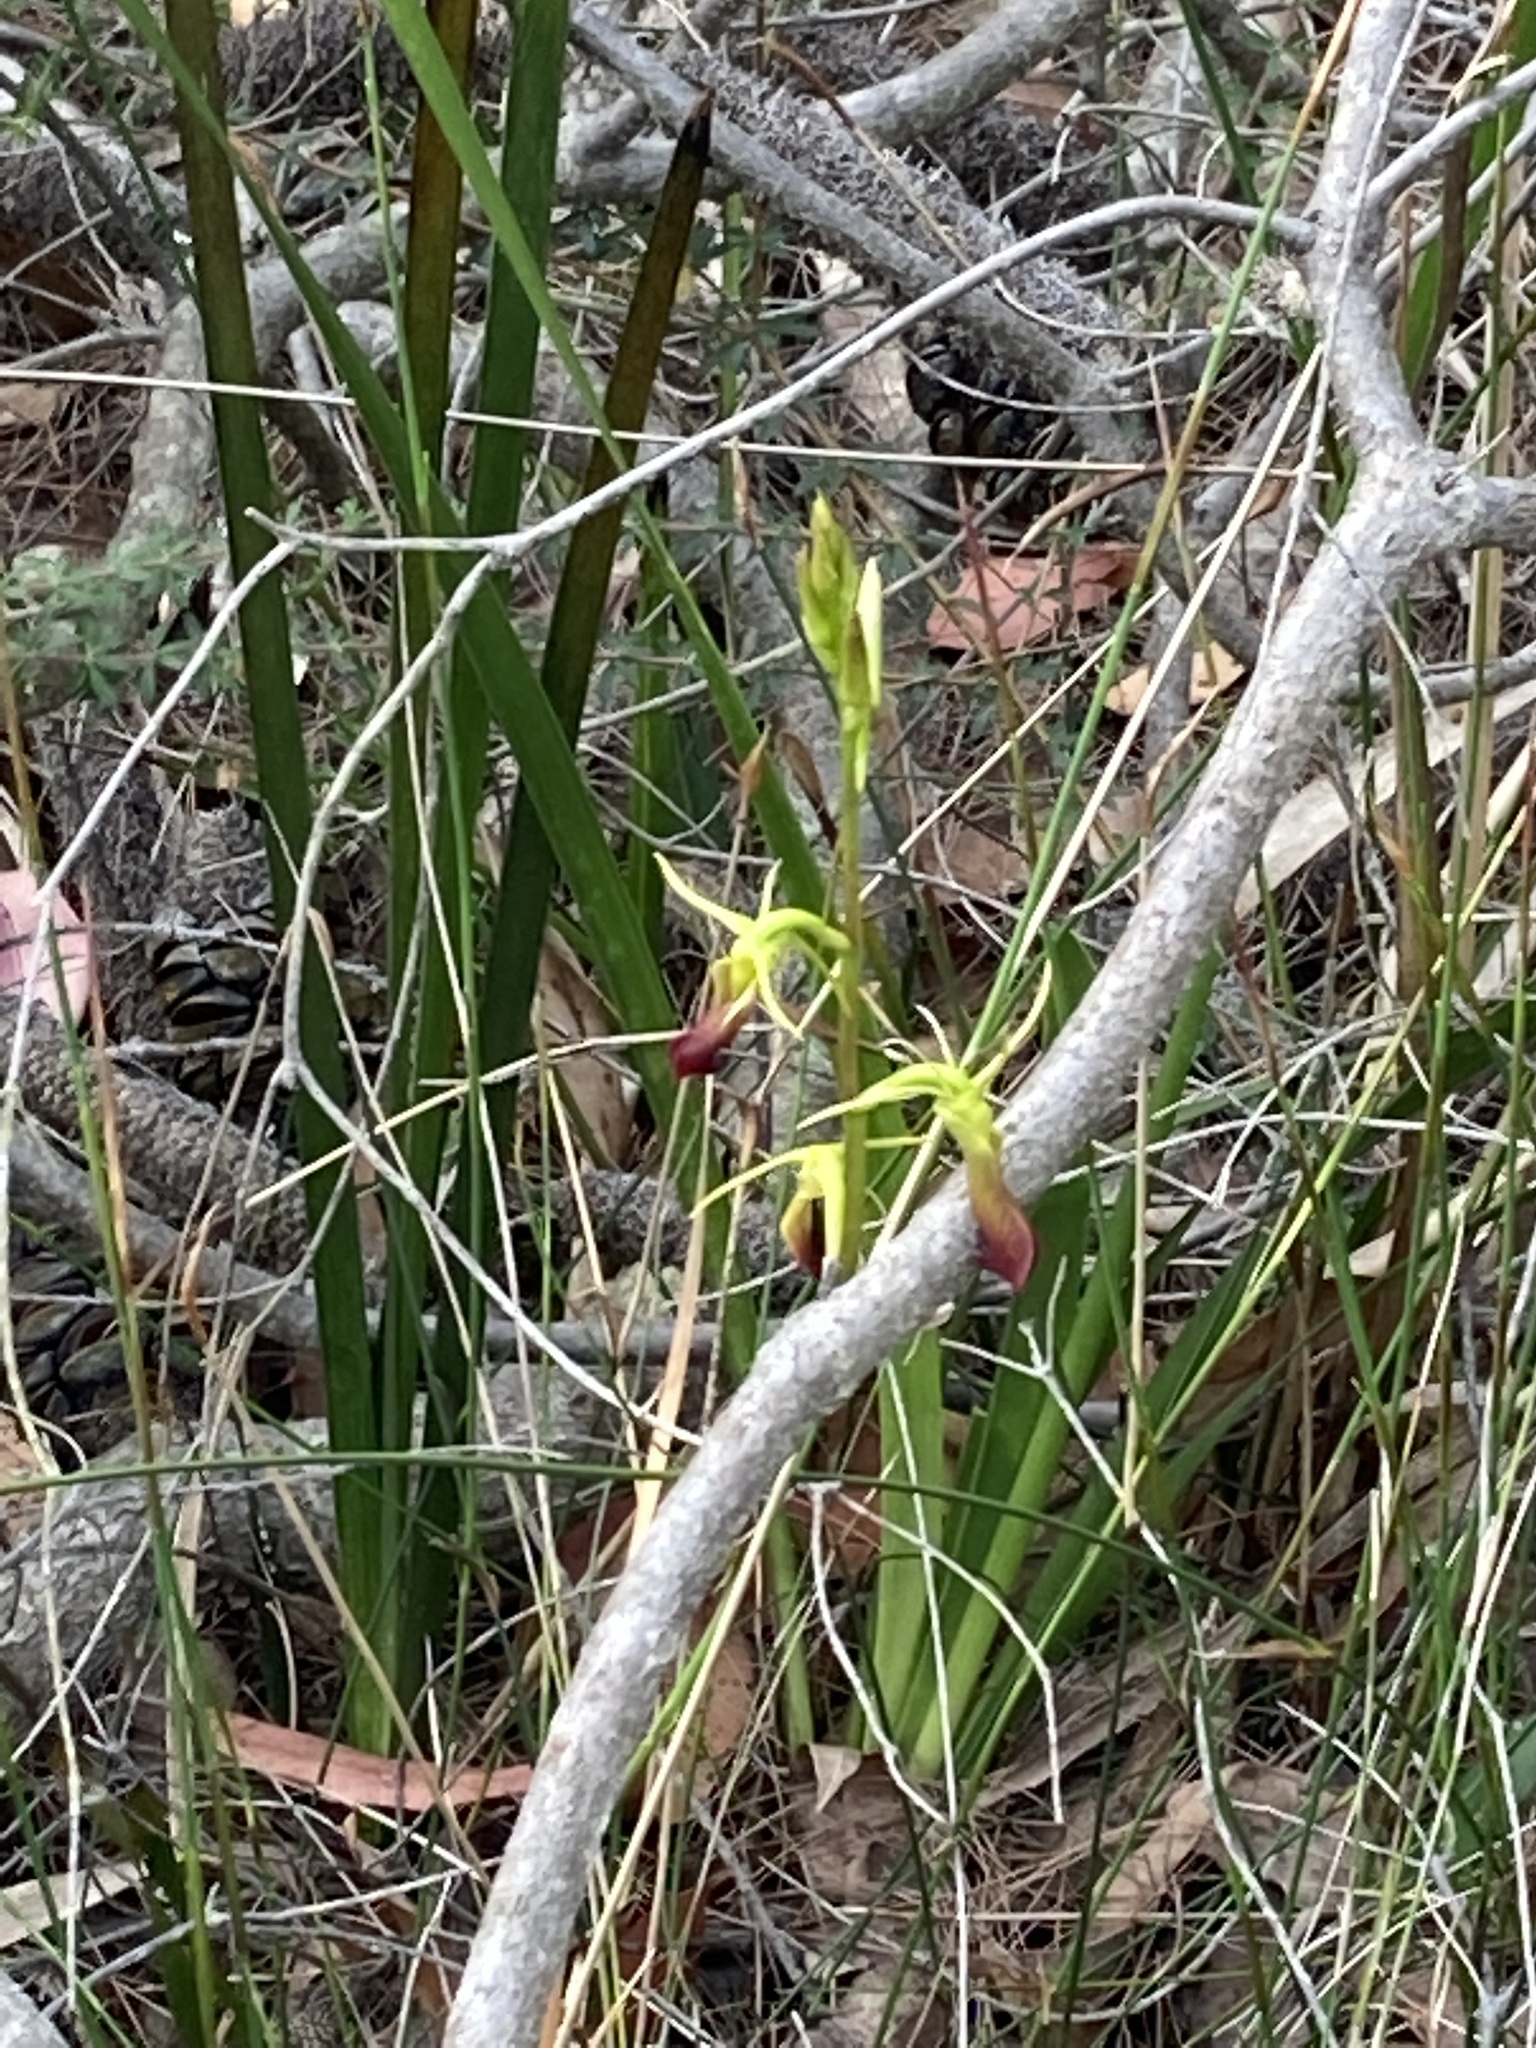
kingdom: Plantae
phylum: Tracheophyta
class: Liliopsida
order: Asparagales
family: Orchidaceae
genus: Cryptostylis
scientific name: Cryptostylis subulata
